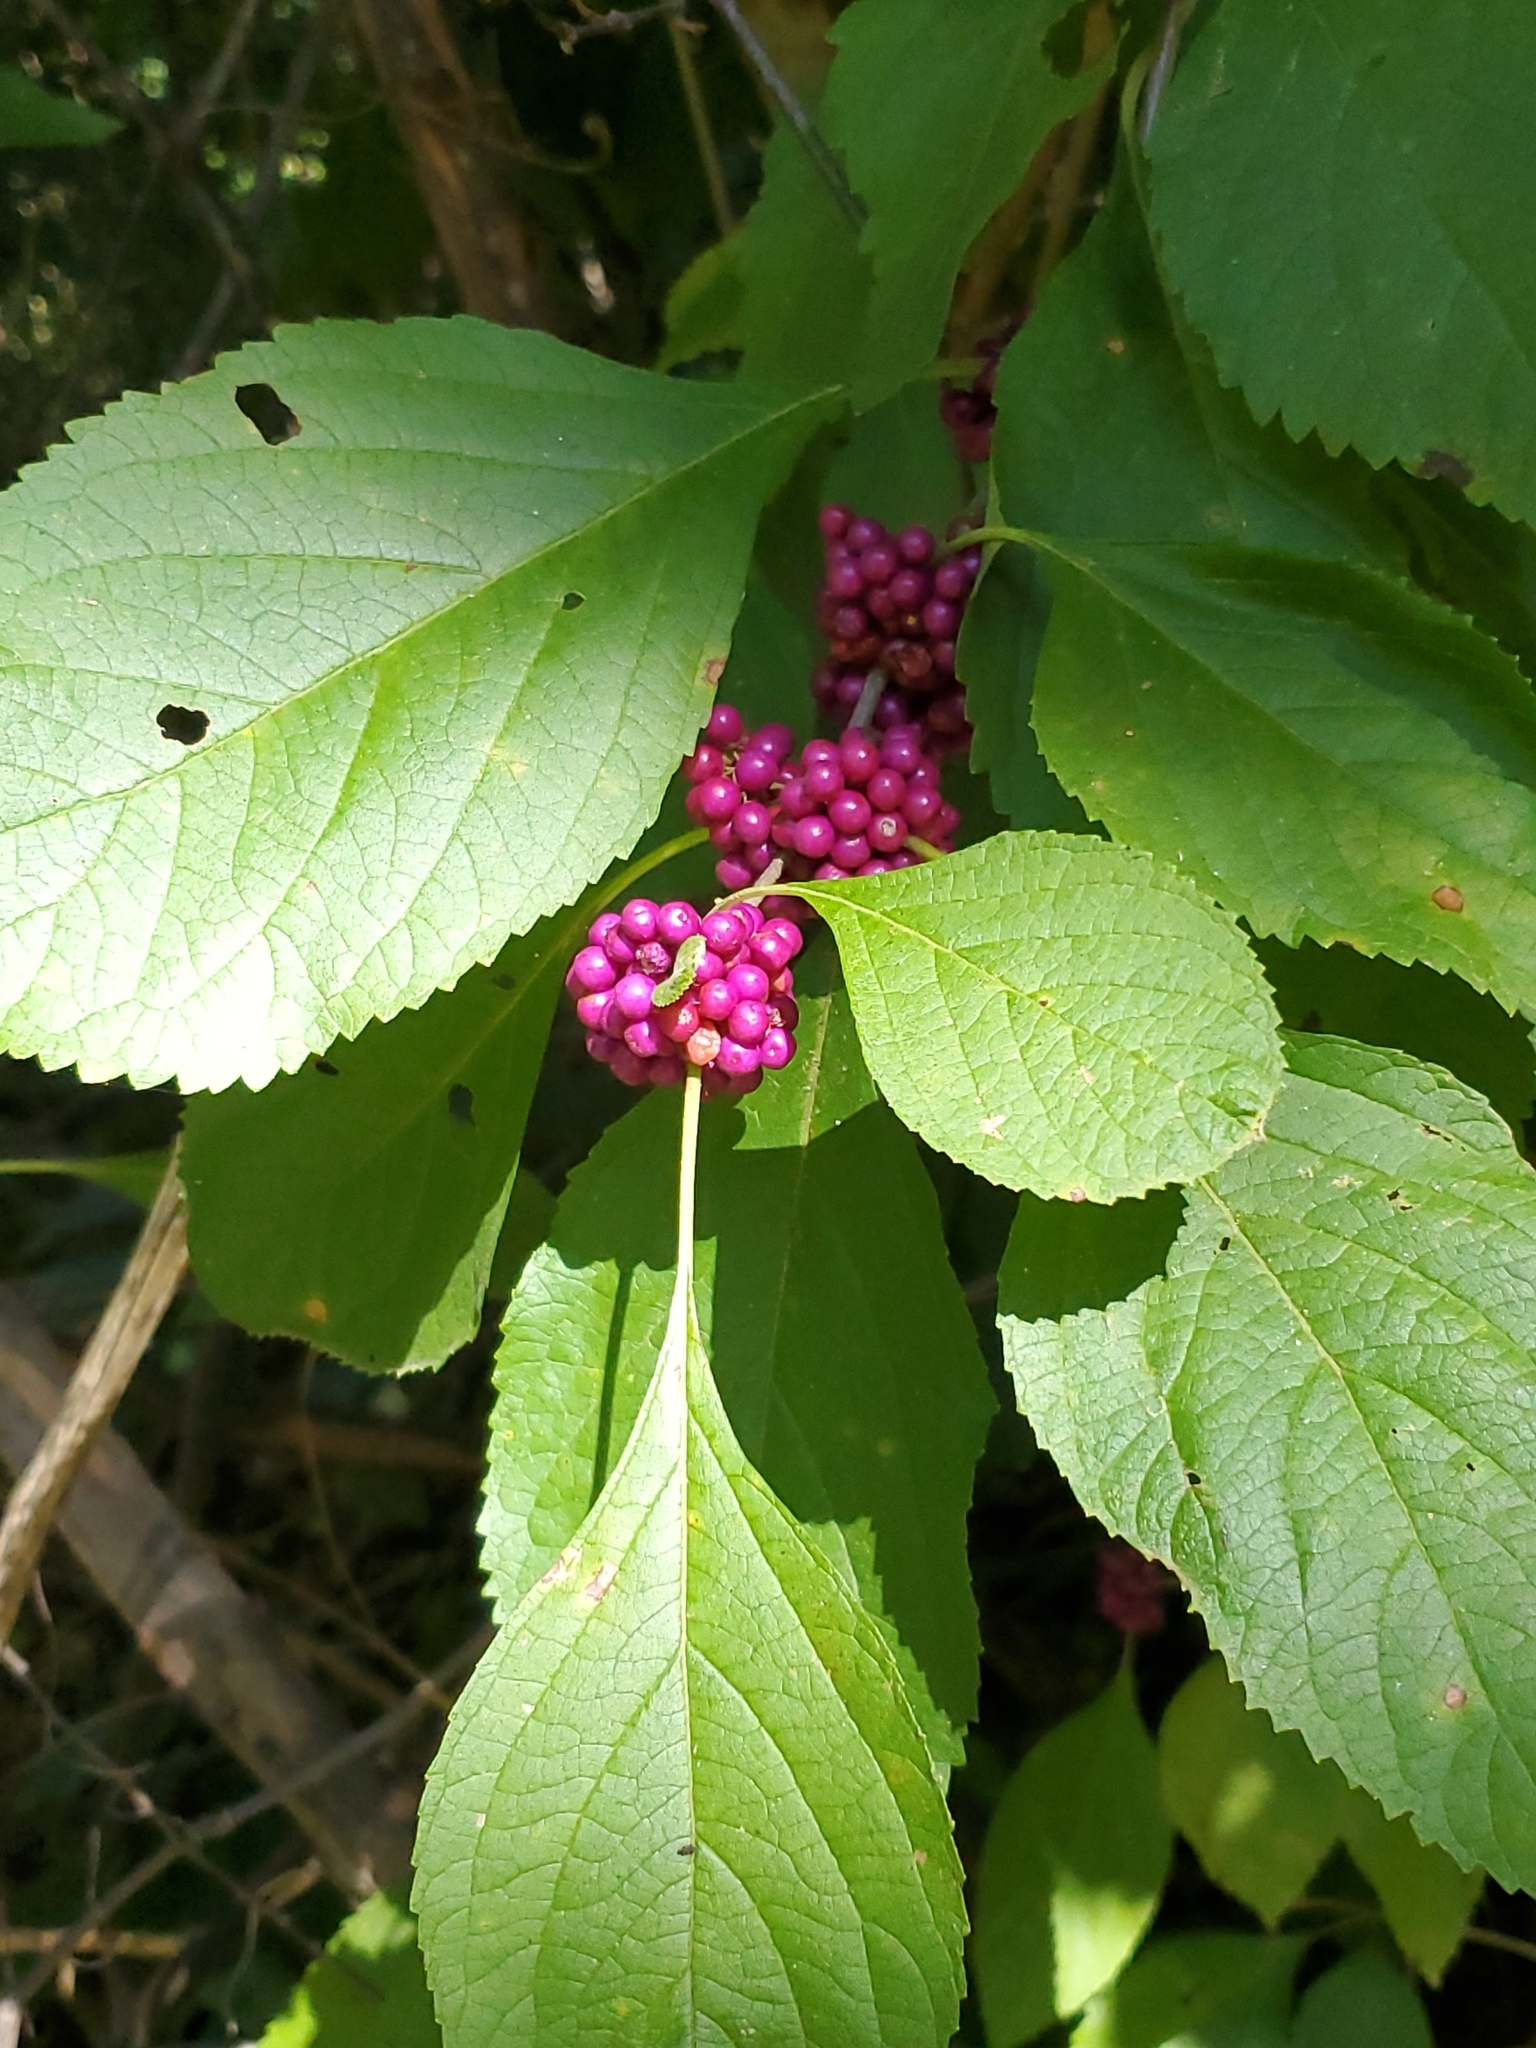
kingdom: Plantae
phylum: Tracheophyta
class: Magnoliopsida
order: Lamiales
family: Lamiaceae
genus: Callicarpa
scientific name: Callicarpa americana
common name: American beautyberry
